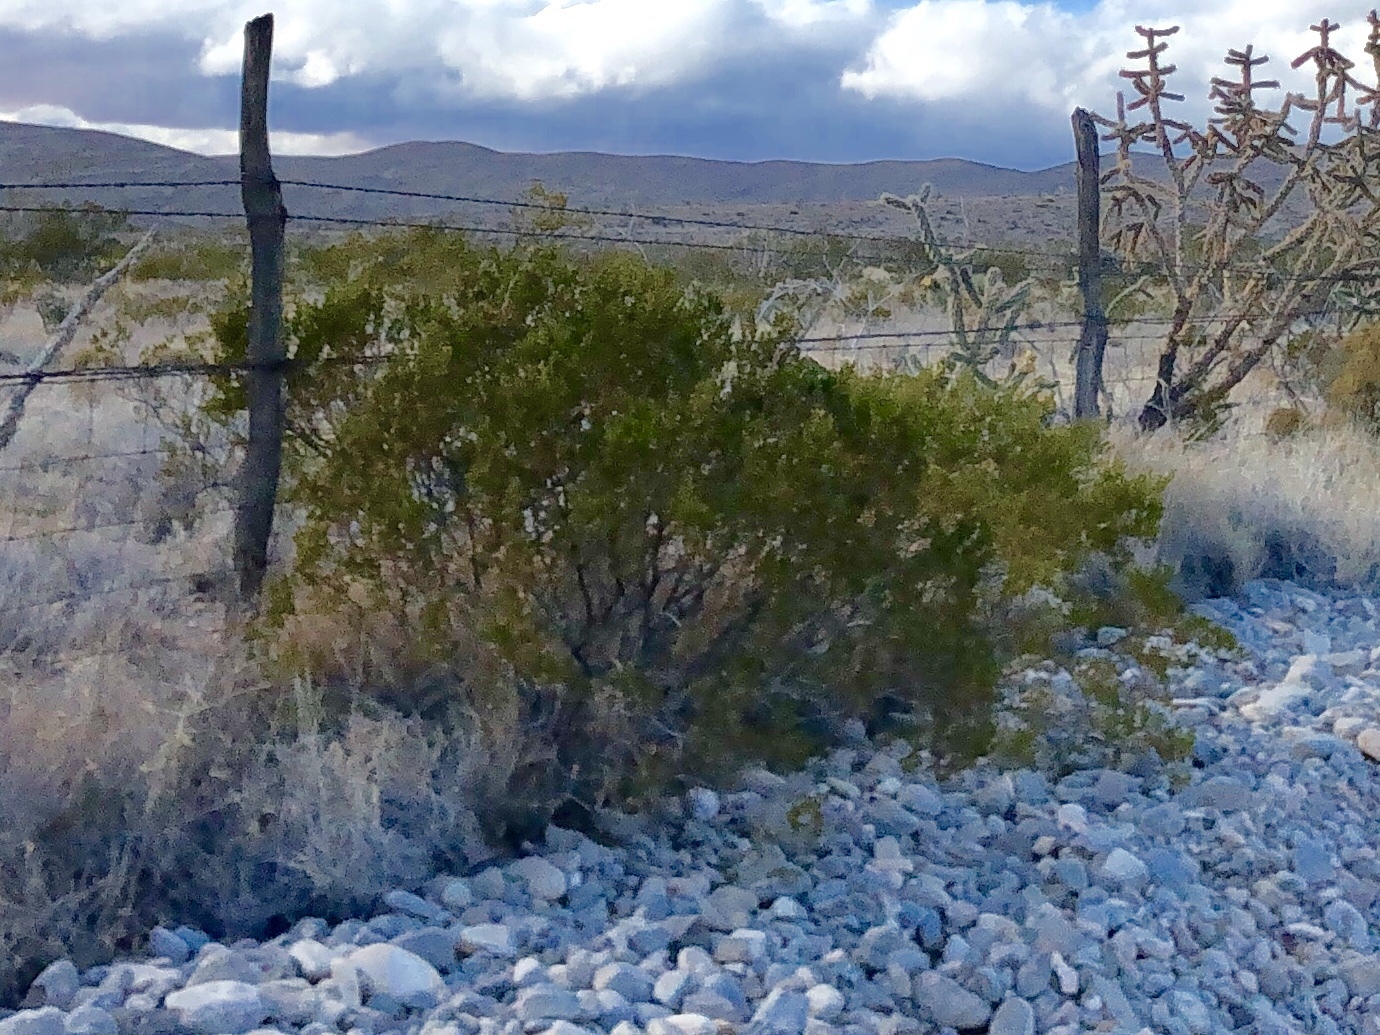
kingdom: Plantae
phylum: Tracheophyta
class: Magnoliopsida
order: Zygophyllales
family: Zygophyllaceae
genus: Larrea
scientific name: Larrea tridentata
